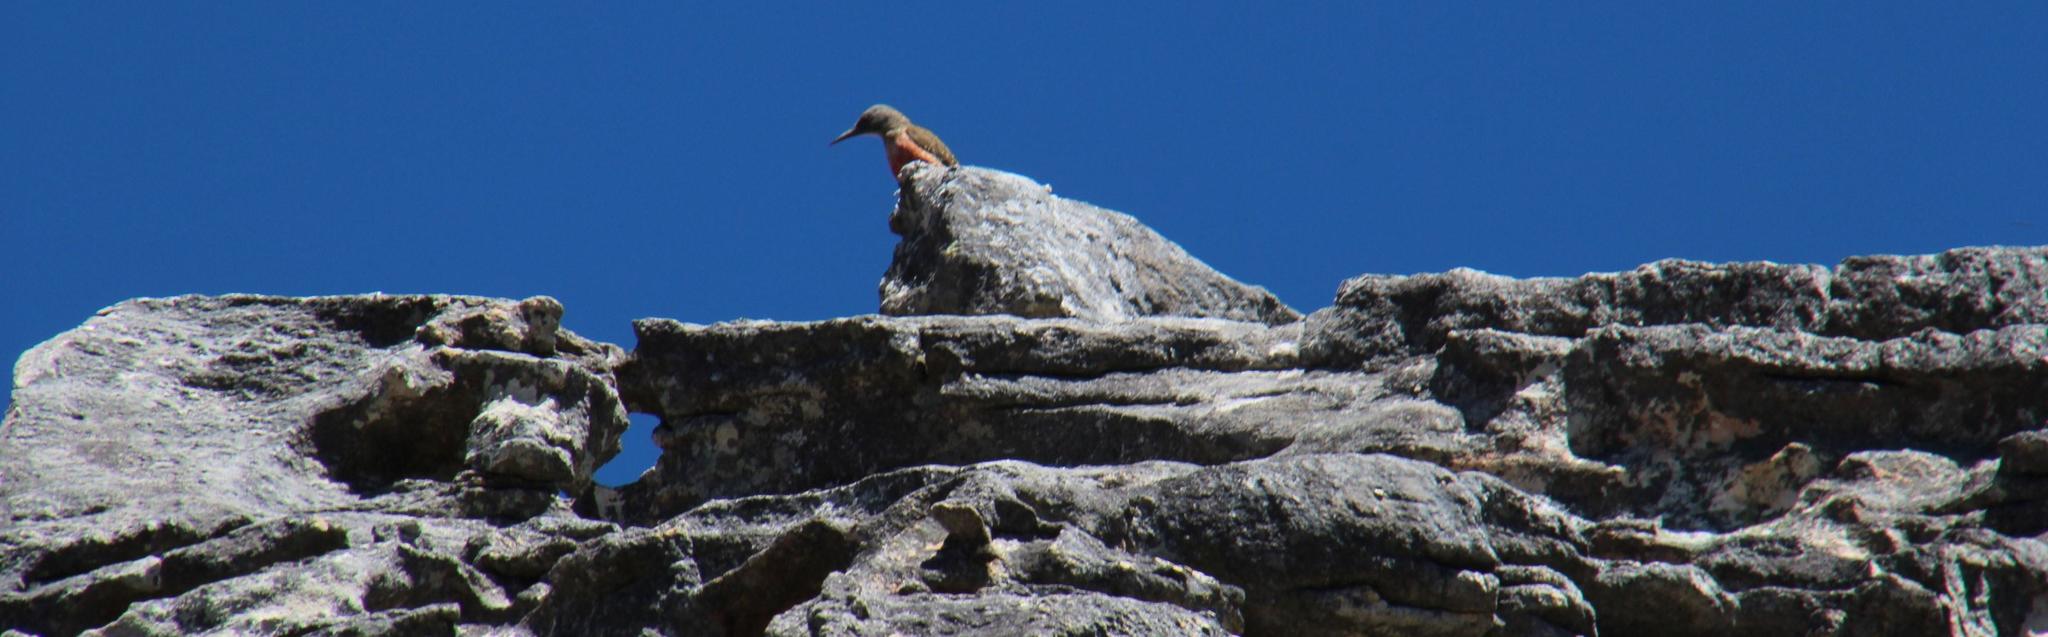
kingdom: Animalia
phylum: Chordata
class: Aves
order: Piciformes
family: Picidae
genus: Geocolaptes
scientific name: Geocolaptes olivaceus
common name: Ground woodpecker
